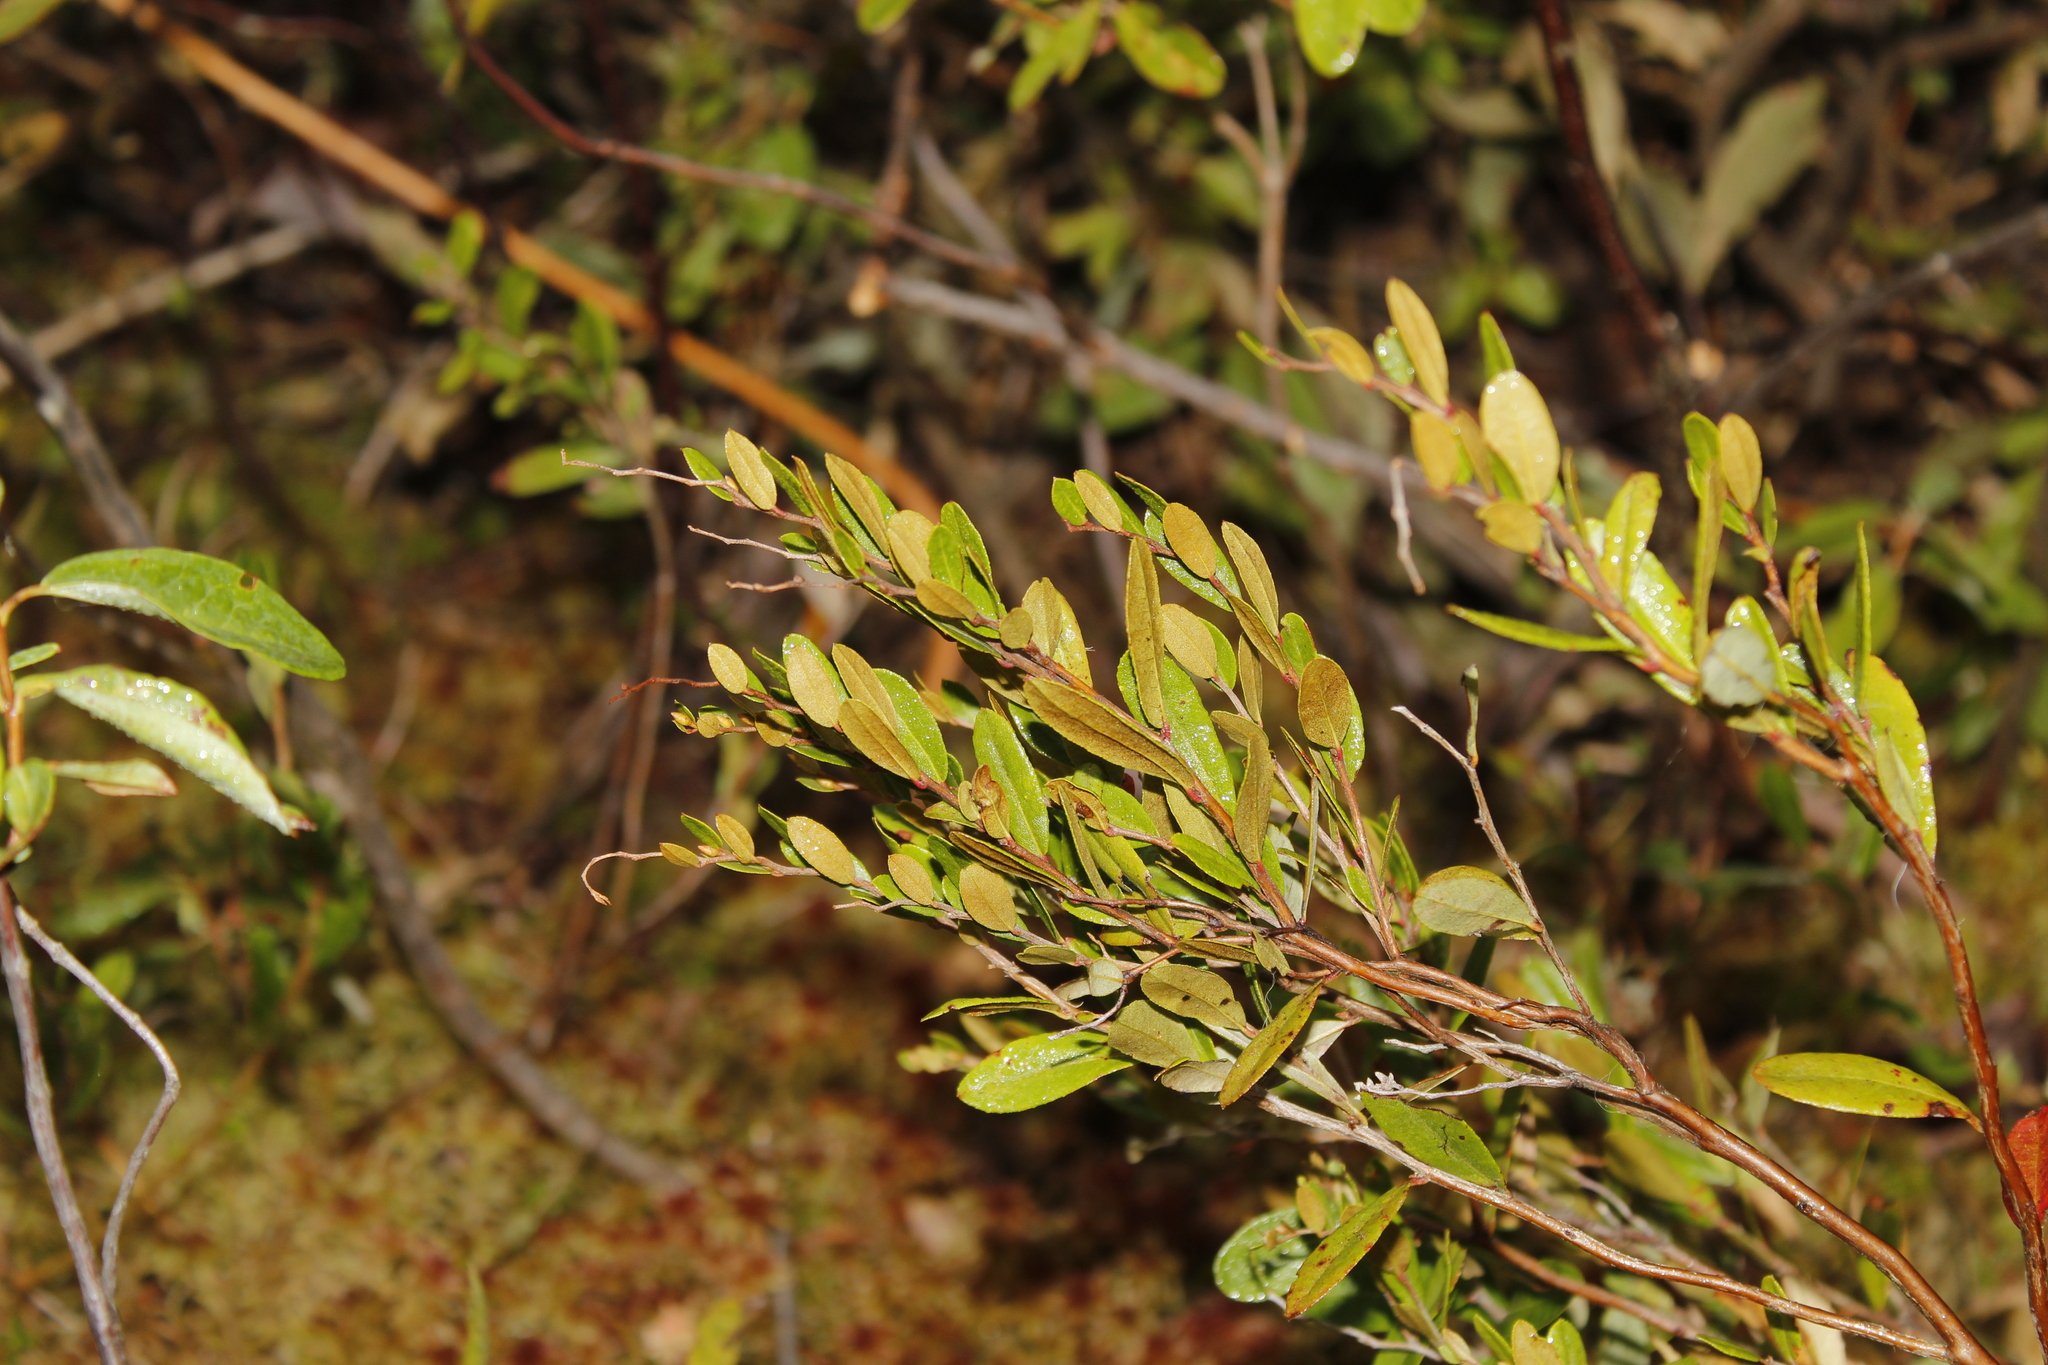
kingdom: Plantae
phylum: Tracheophyta
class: Magnoliopsida
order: Ericales
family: Ericaceae
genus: Chamaedaphne
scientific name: Chamaedaphne calyculata
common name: Leatherleaf
